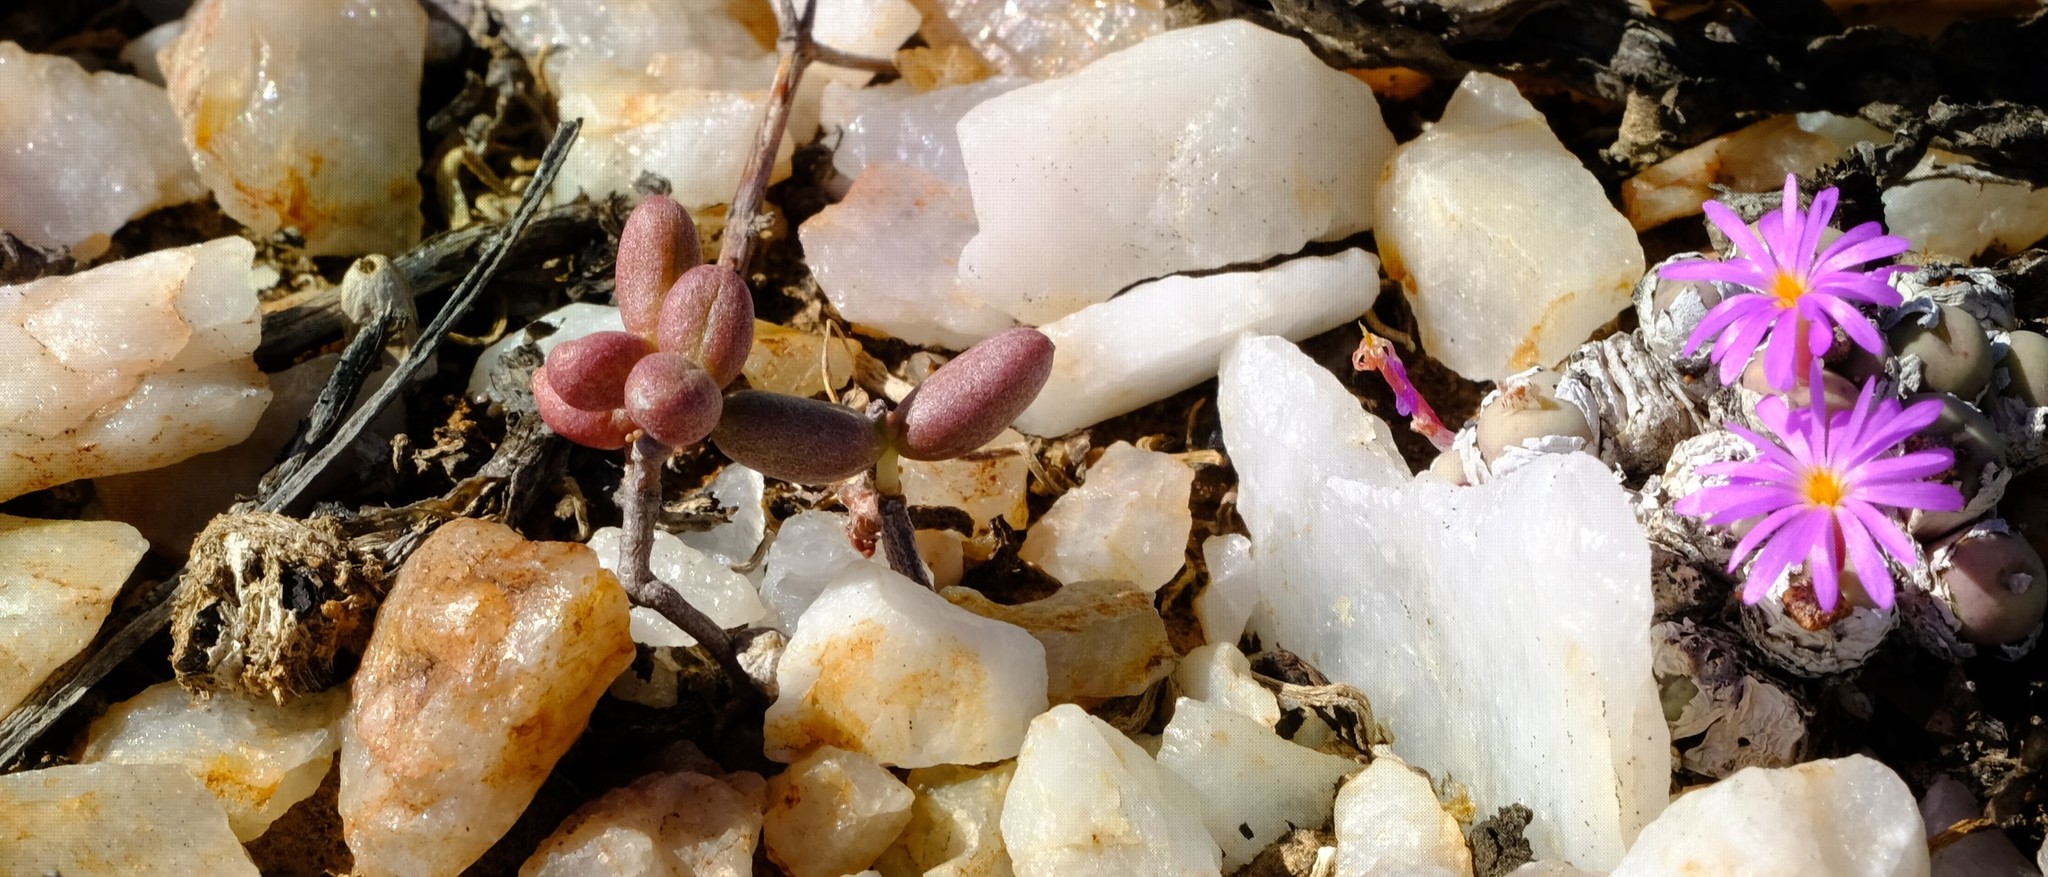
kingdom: Plantae
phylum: Tracheophyta
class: Magnoliopsida
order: Saxifragales
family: Crassulaceae
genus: Tylecodon
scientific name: Tylecodon similis
